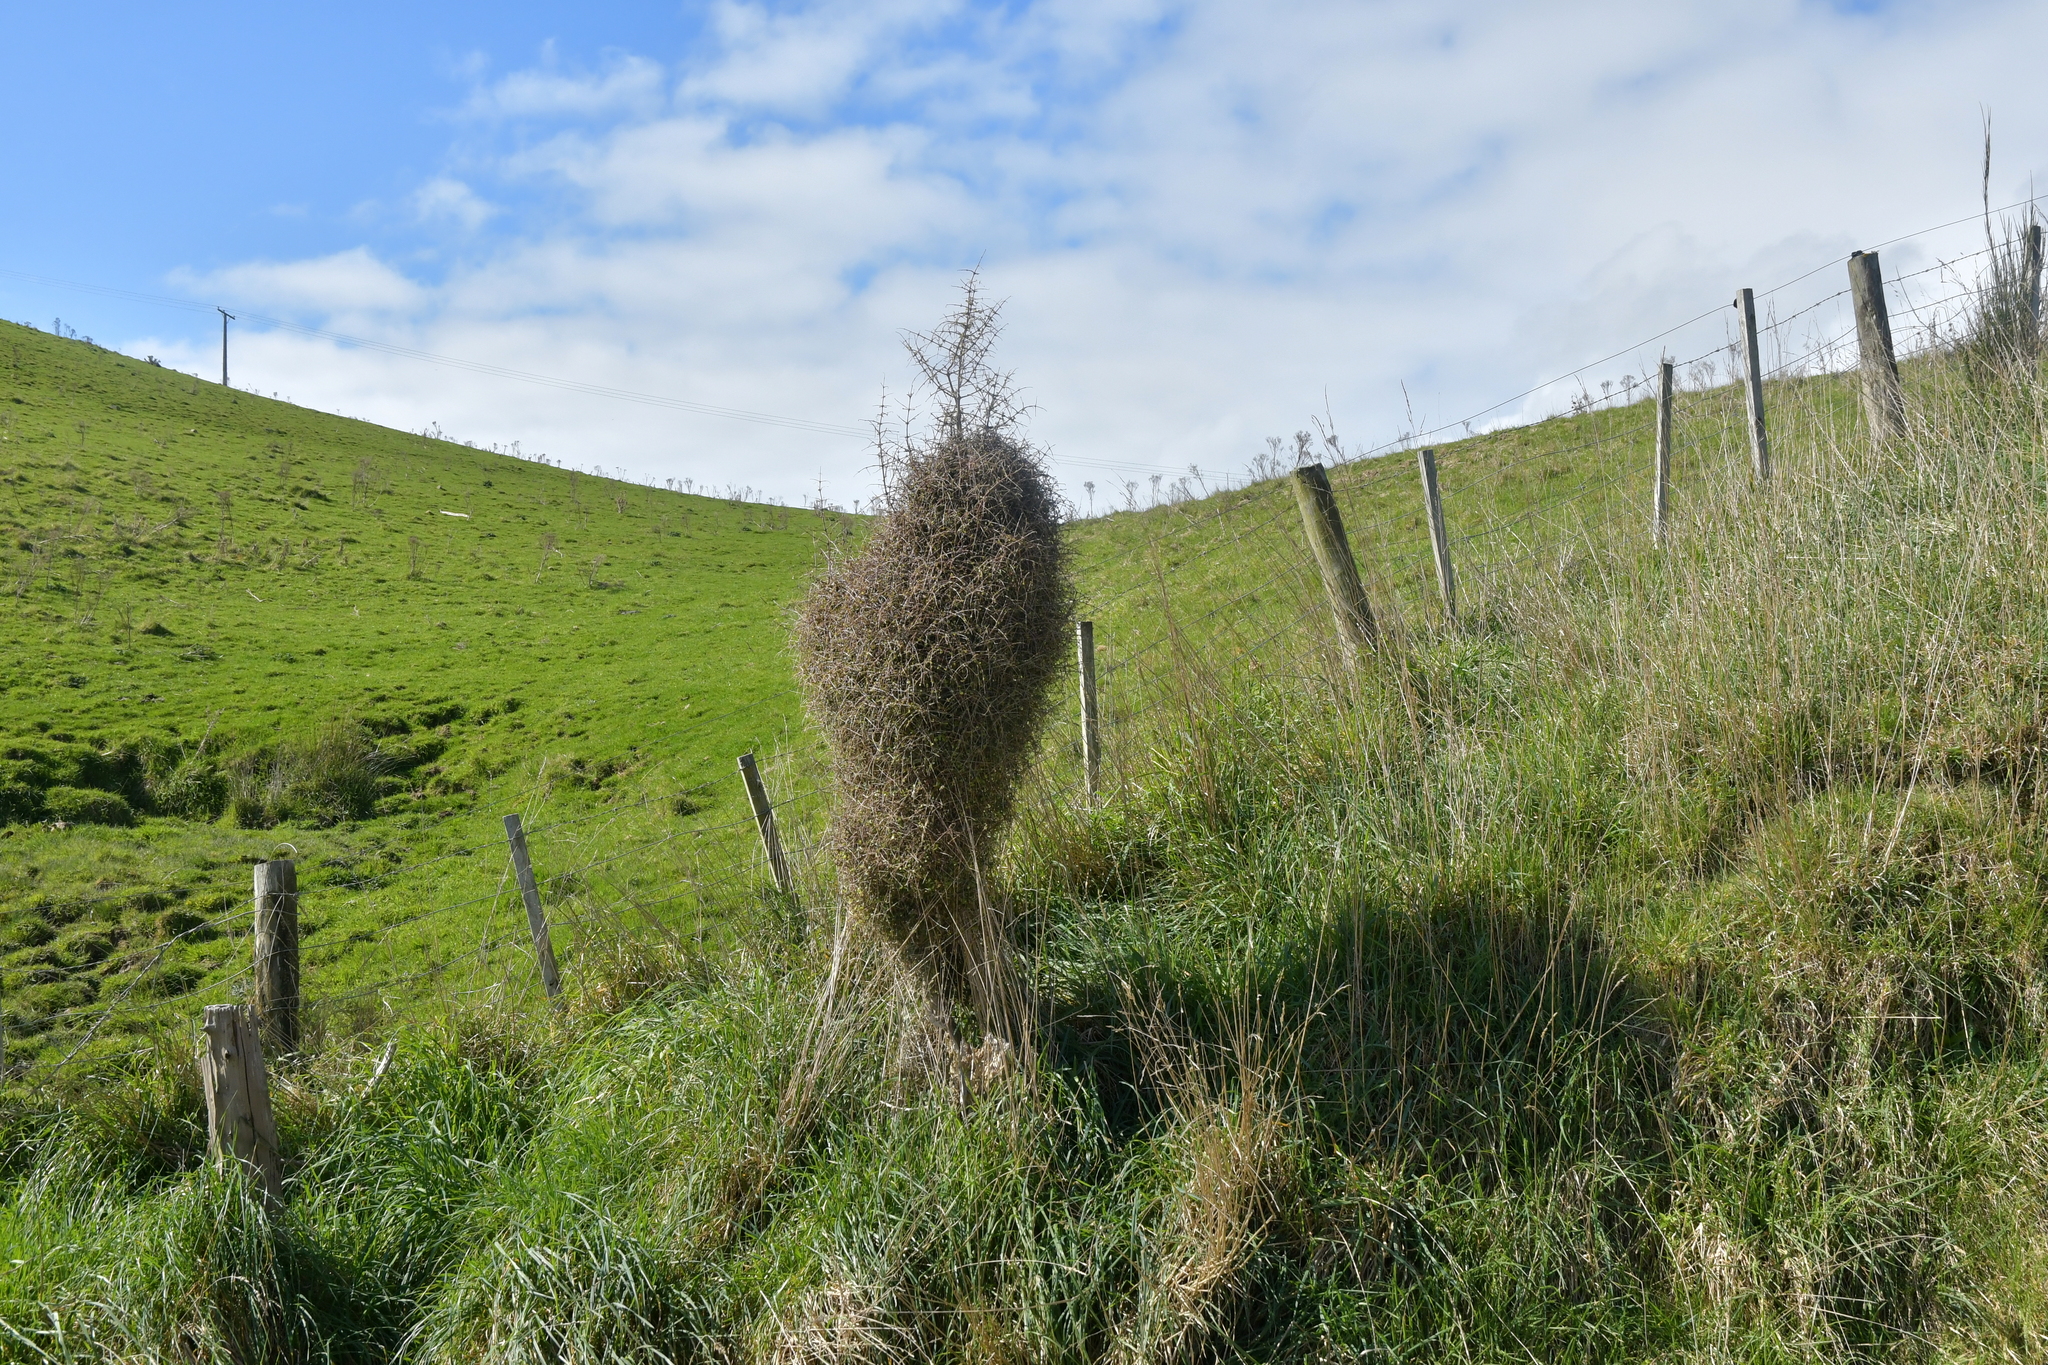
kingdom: Plantae
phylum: Tracheophyta
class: Magnoliopsida
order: Gentianales
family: Rubiaceae
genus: Coprosma
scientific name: Coprosma crassifolia
